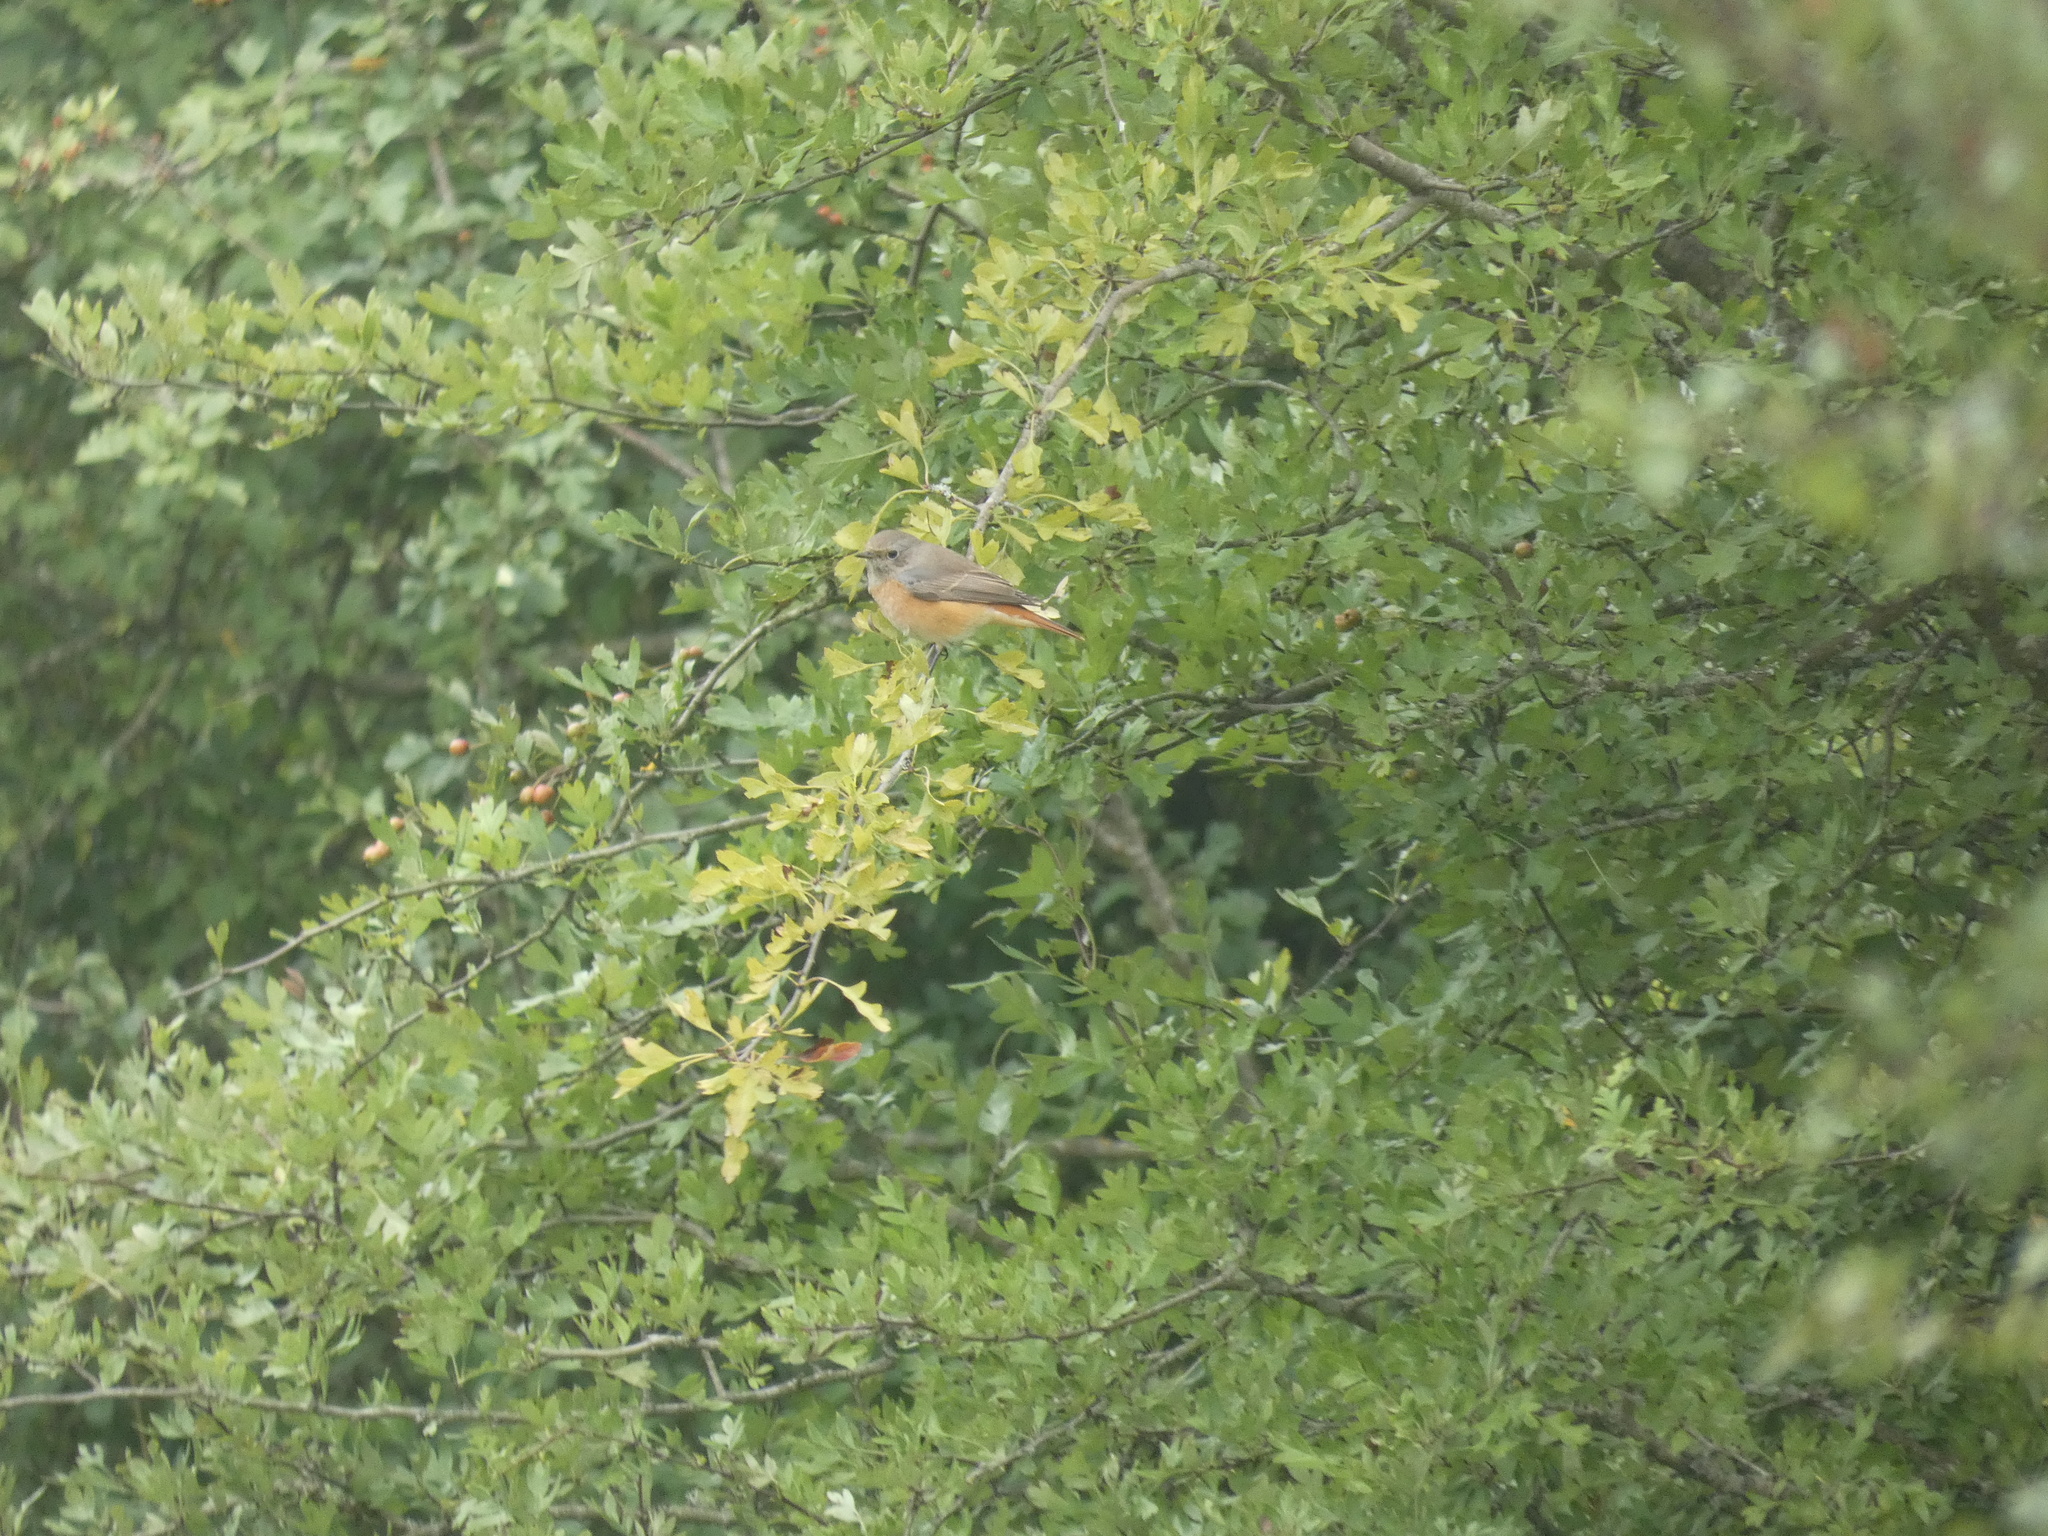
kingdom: Animalia
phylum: Chordata
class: Aves
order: Passeriformes
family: Muscicapidae
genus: Phoenicurus
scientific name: Phoenicurus phoenicurus
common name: Common redstart
